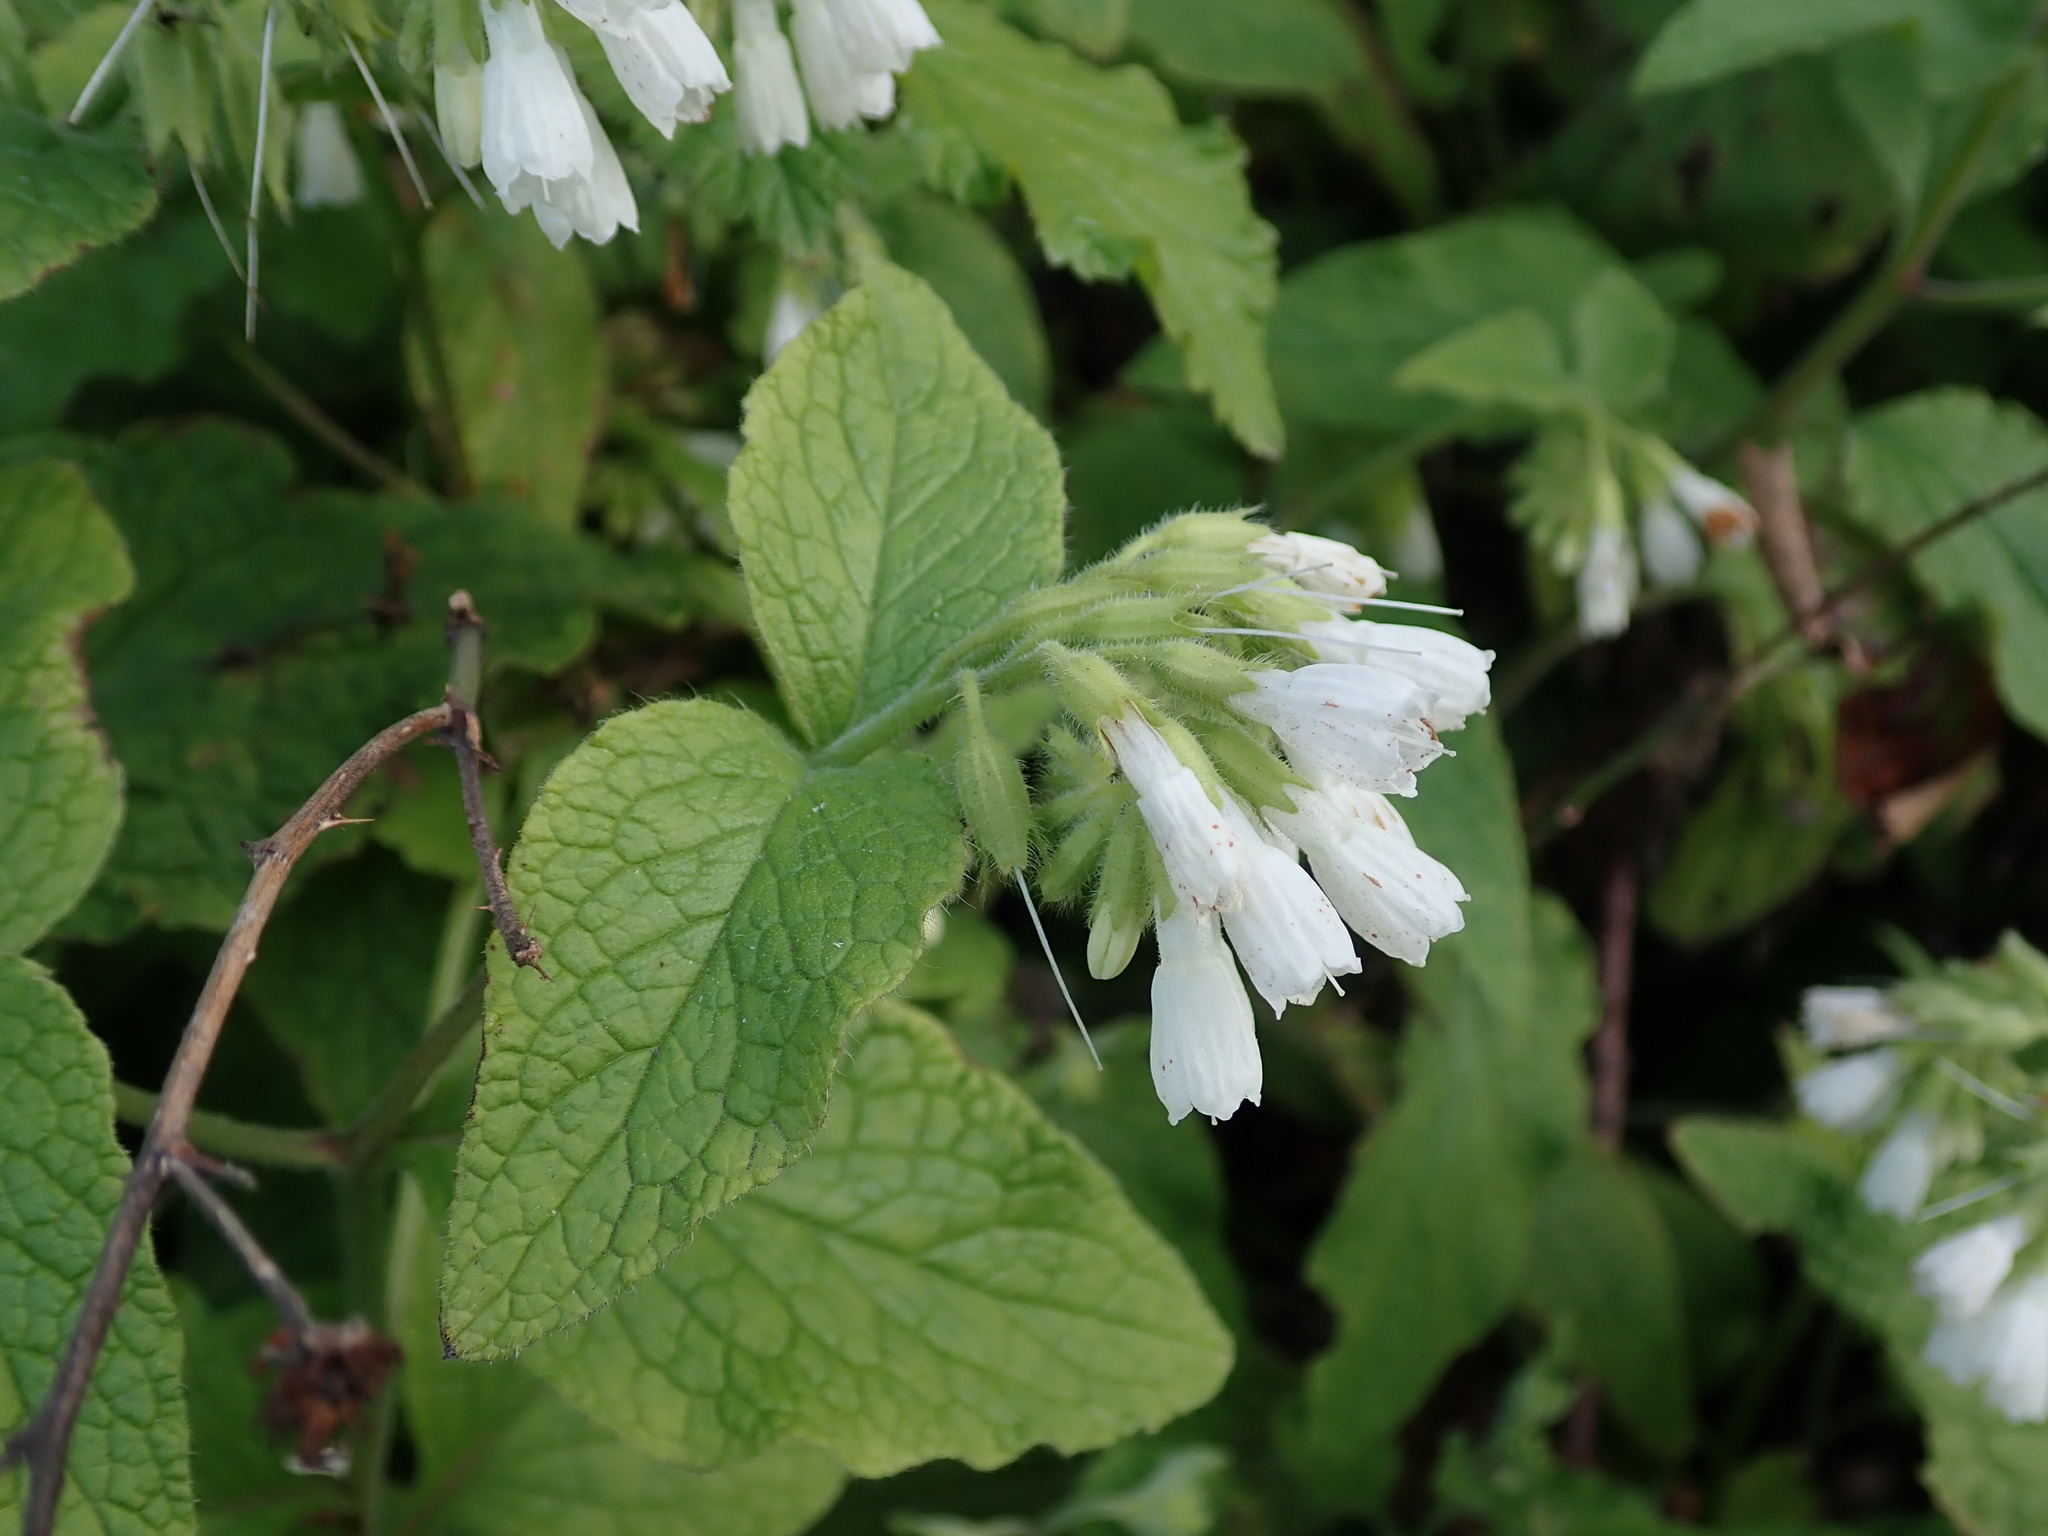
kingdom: Plantae
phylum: Tracheophyta
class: Magnoliopsida
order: Boraginales
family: Boraginaceae
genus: Symphytum
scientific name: Symphytum orientale
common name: White comfrey
